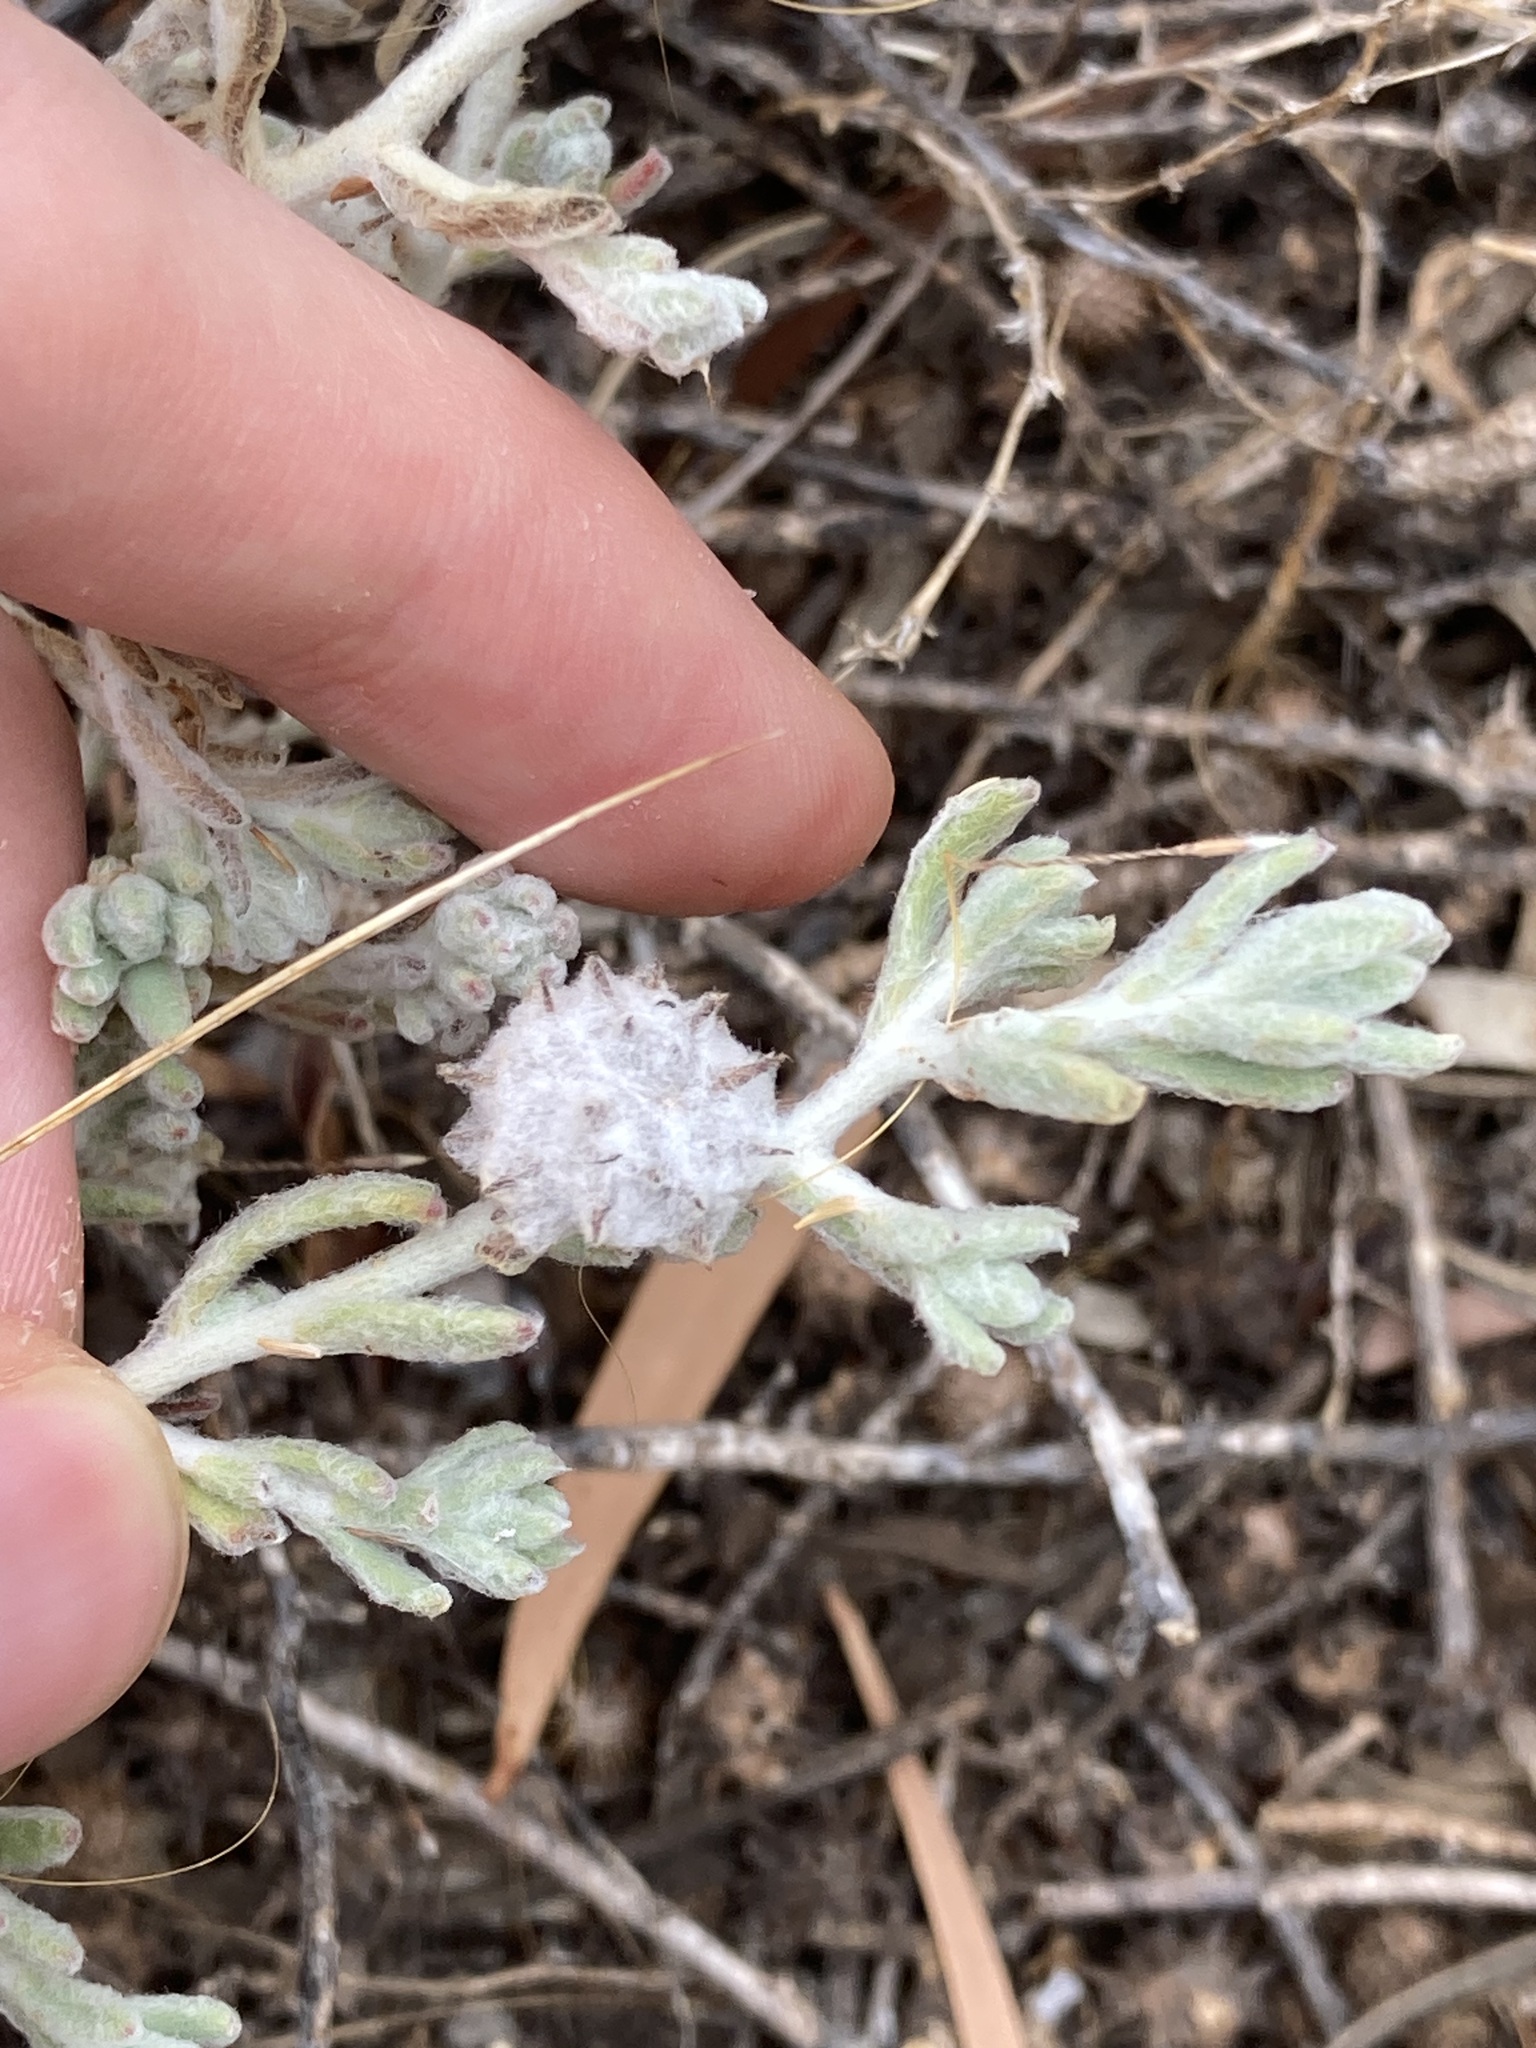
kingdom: Plantae
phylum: Tracheophyta
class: Magnoliopsida
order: Caryophyllales
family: Amaranthaceae
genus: Dissocarpus
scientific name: Dissocarpus paradoxus
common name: Bur-saltbush
